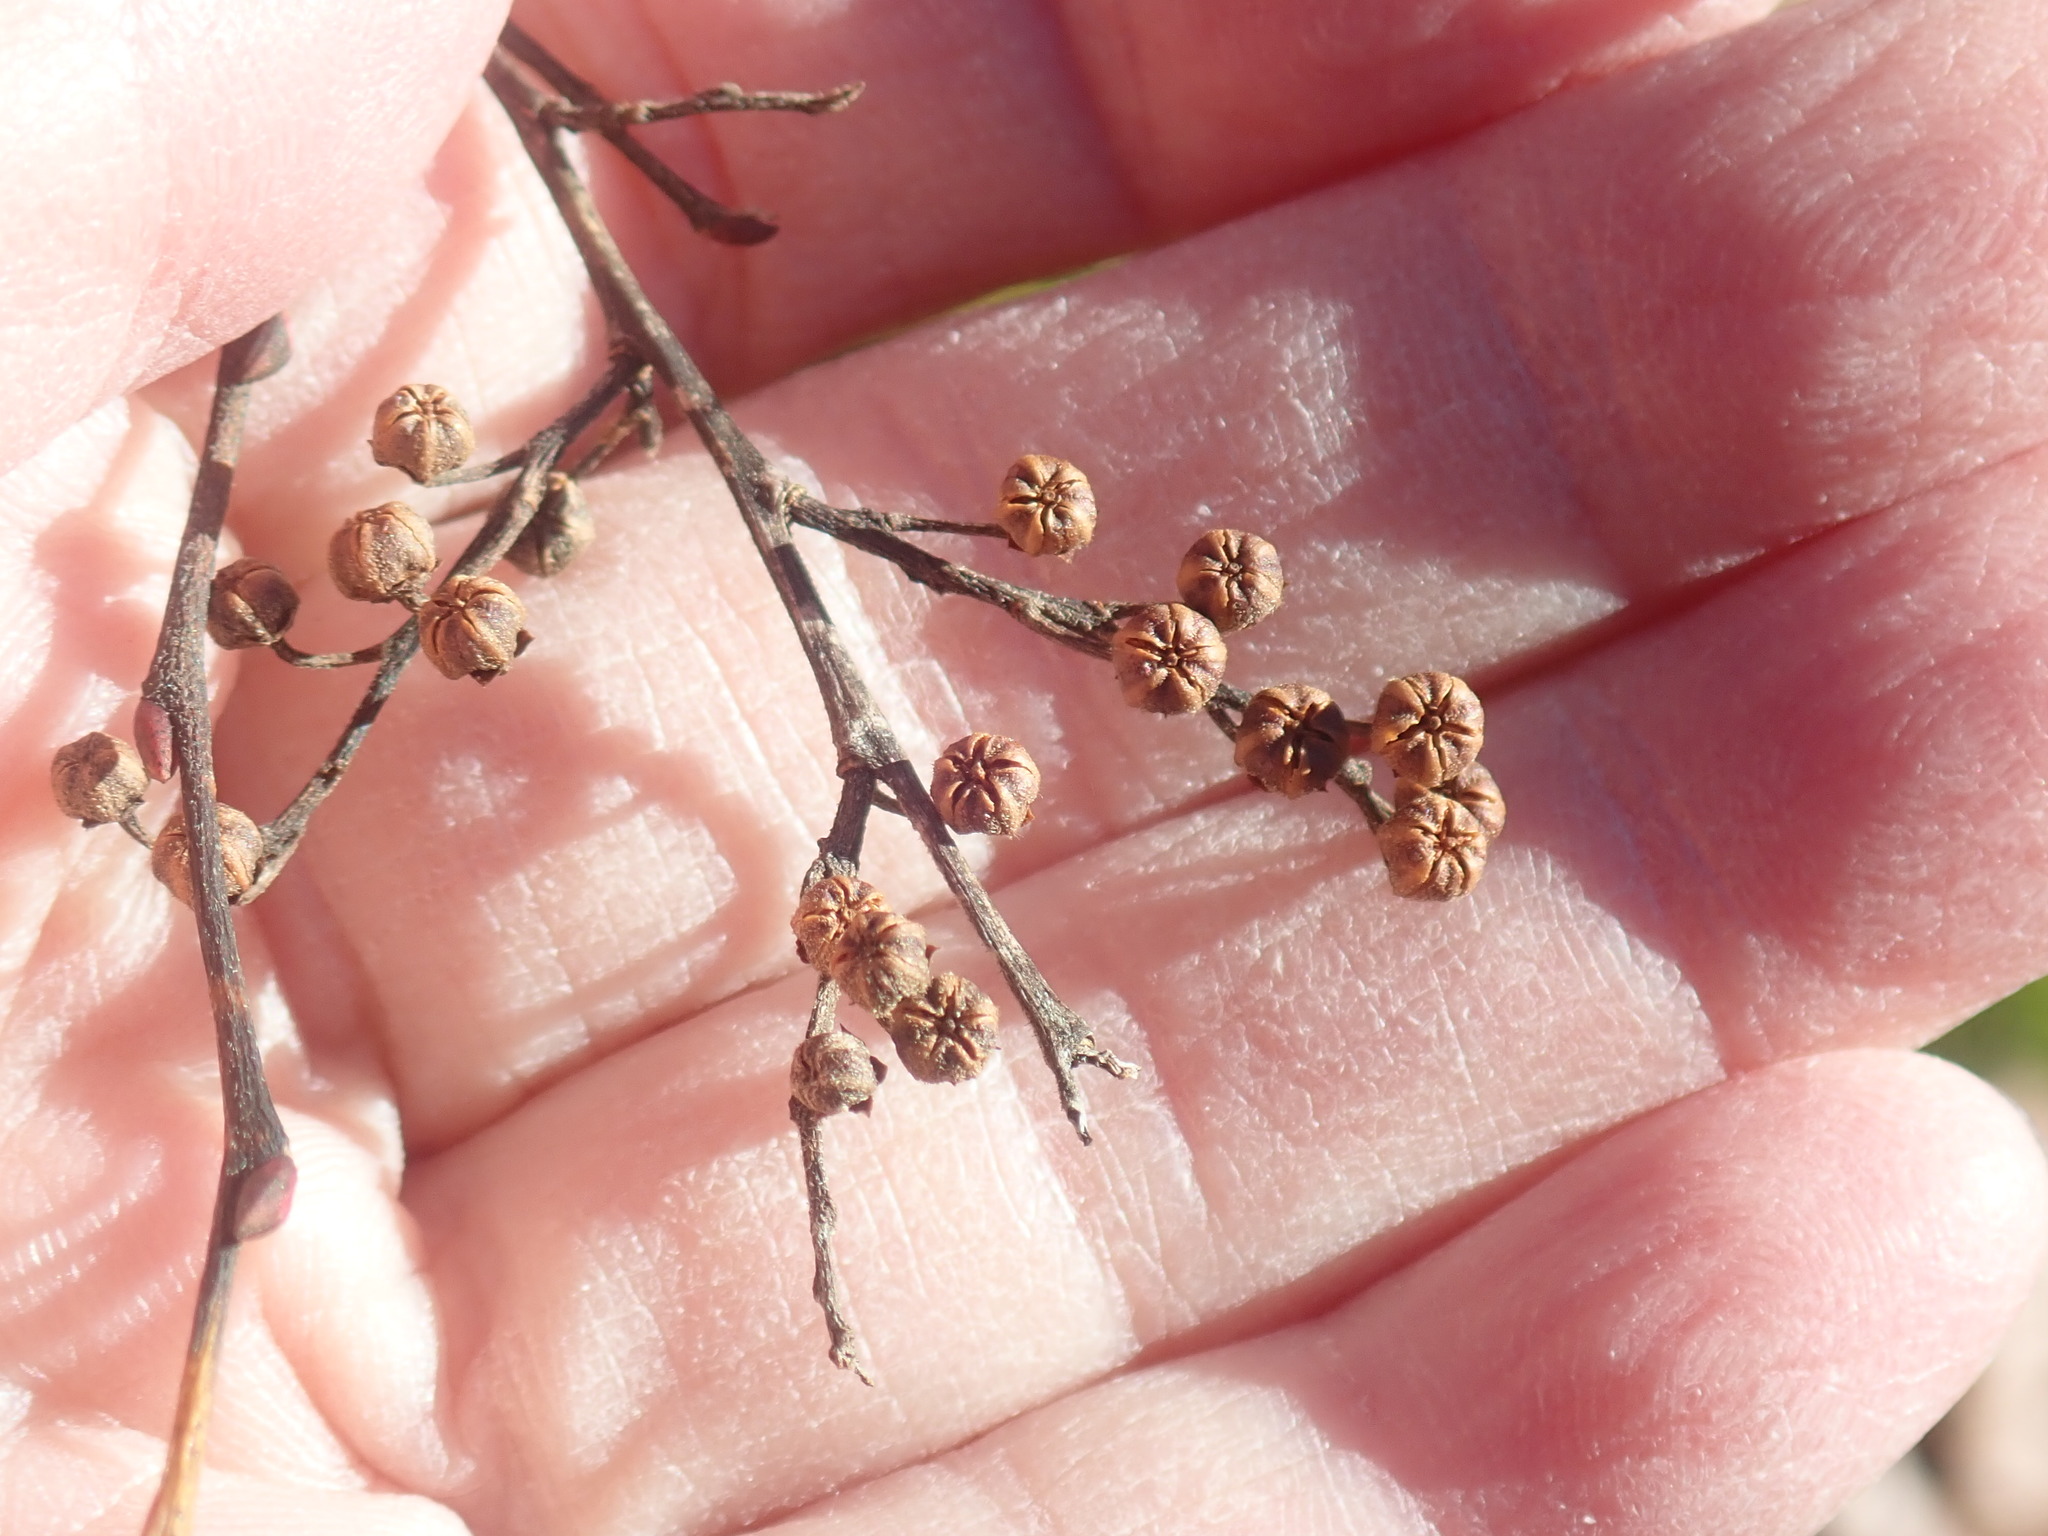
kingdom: Plantae
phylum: Tracheophyta
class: Magnoliopsida
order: Ericales
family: Ericaceae
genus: Lyonia
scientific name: Lyonia ligustrina
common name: Maleberry
